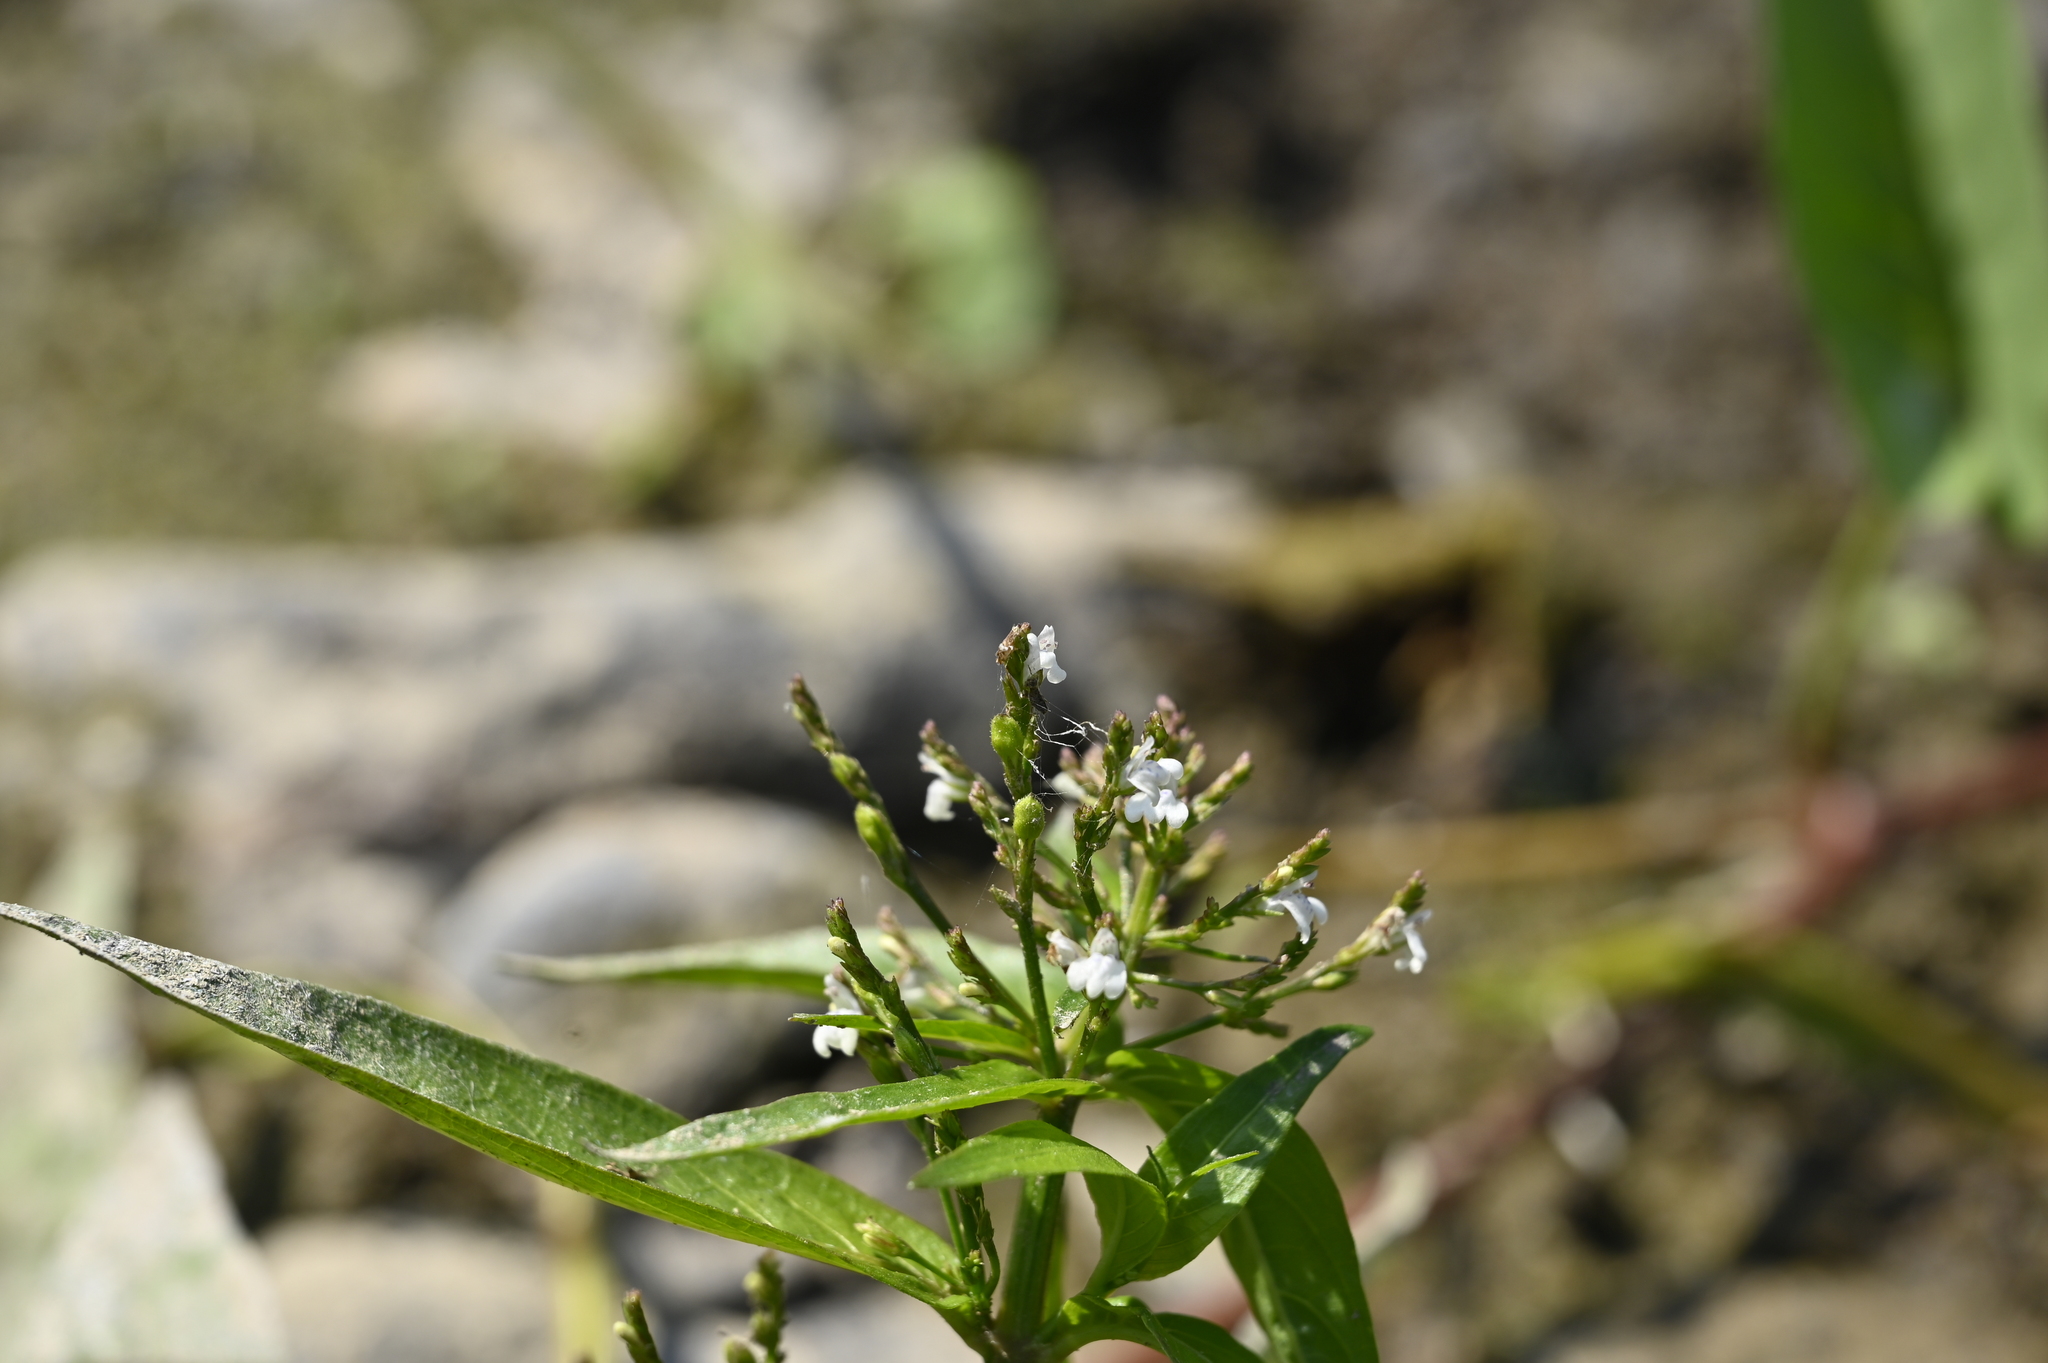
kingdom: Plantae
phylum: Tracheophyta
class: Magnoliopsida
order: Lamiales
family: Acanthaceae
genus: Justicia
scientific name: Justicia comata
